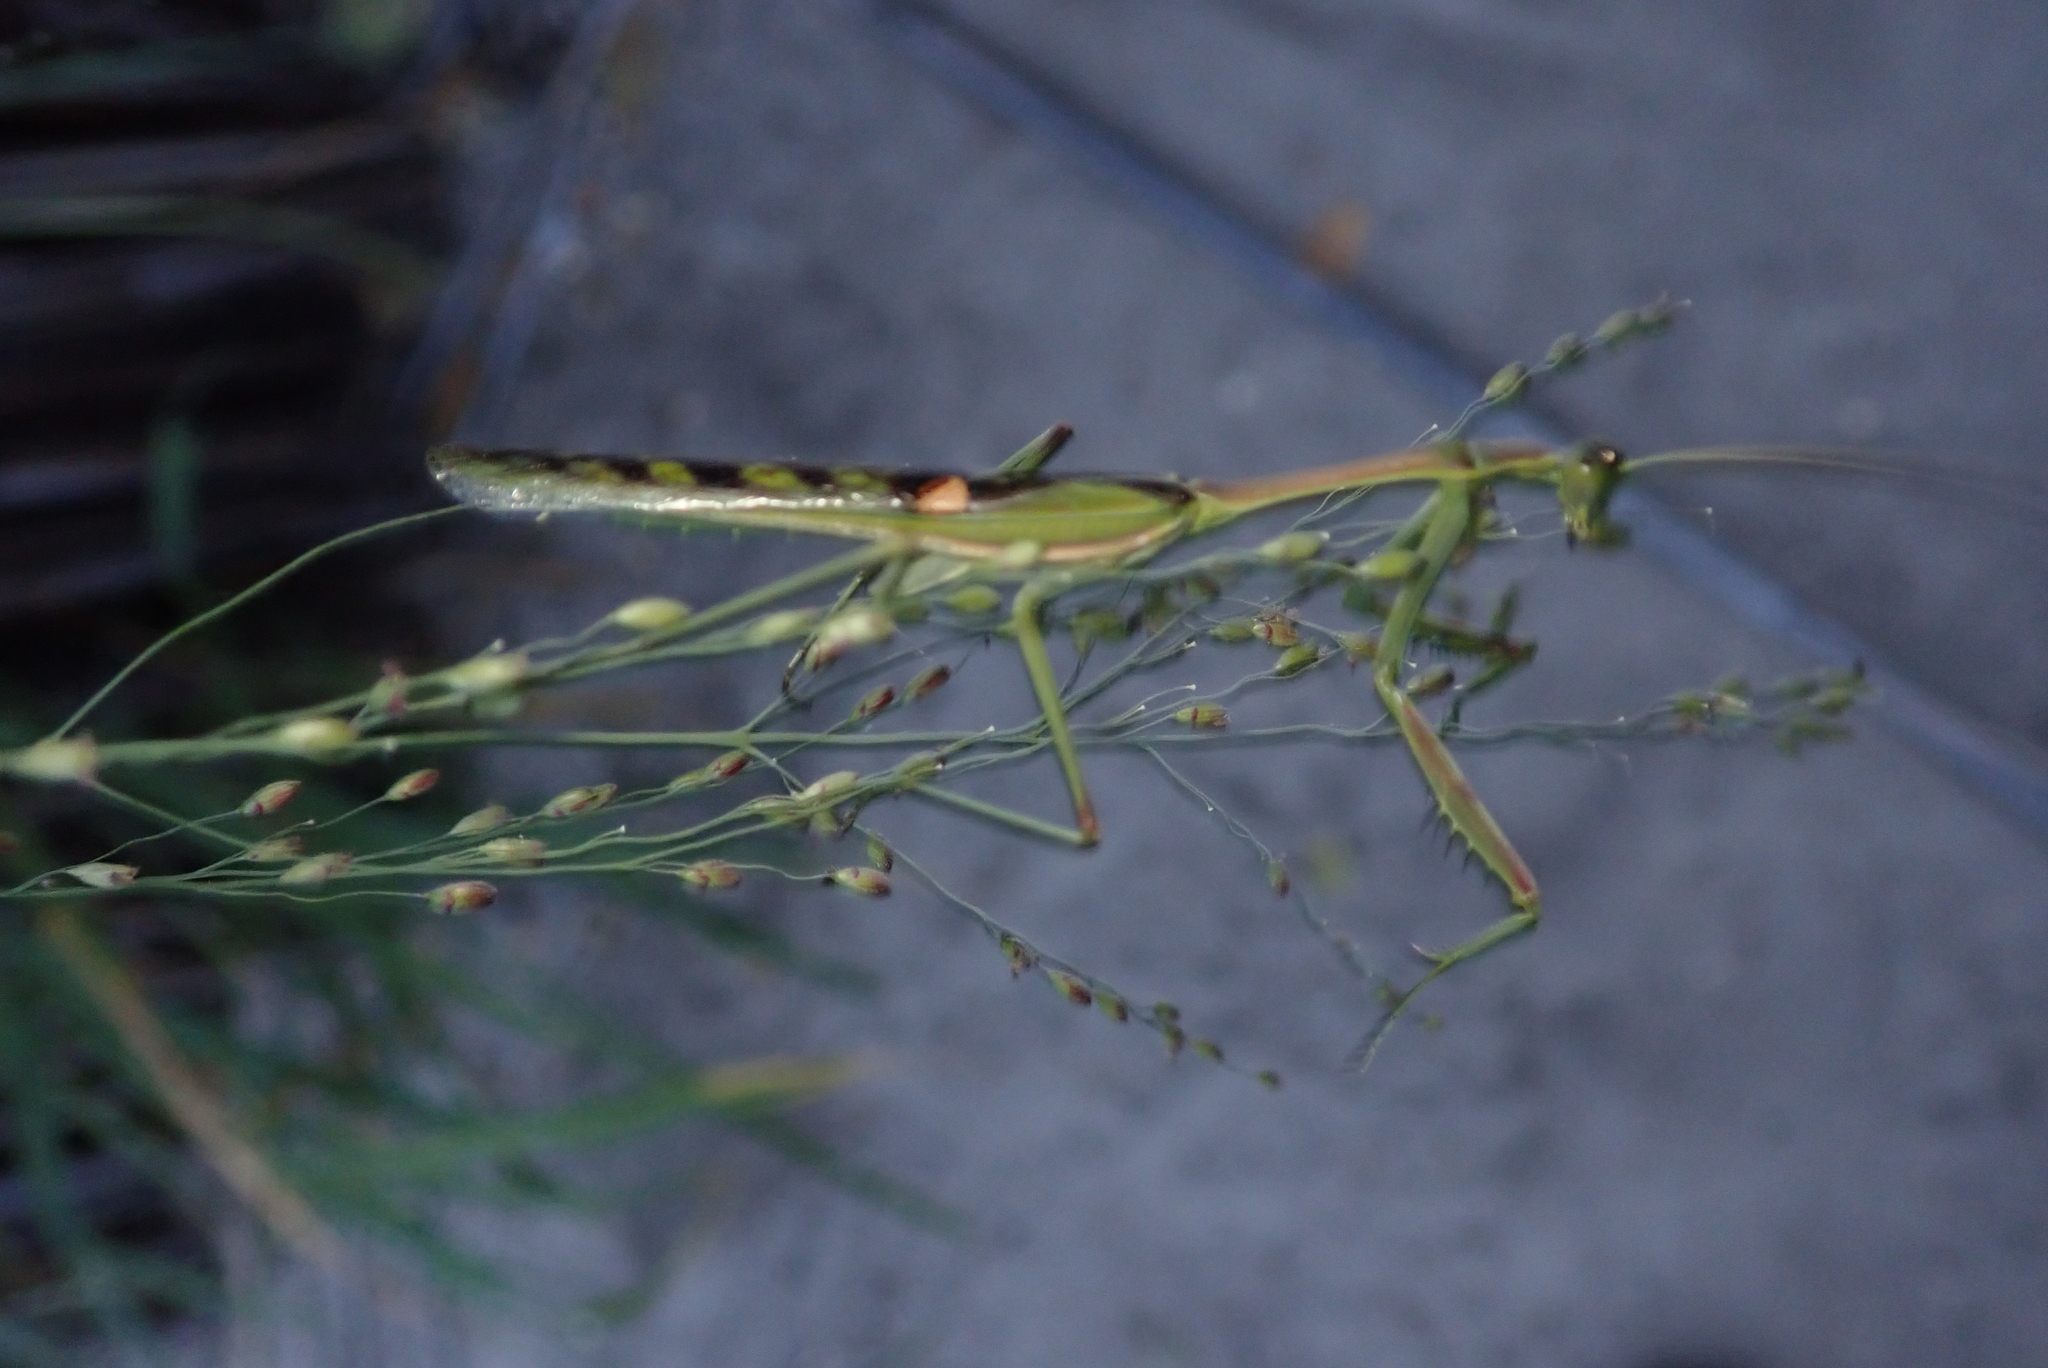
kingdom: Animalia
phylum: Arthropoda
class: Insecta
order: Mantodea
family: Mantidae
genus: Omomantis
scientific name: Omomantis zebrata
